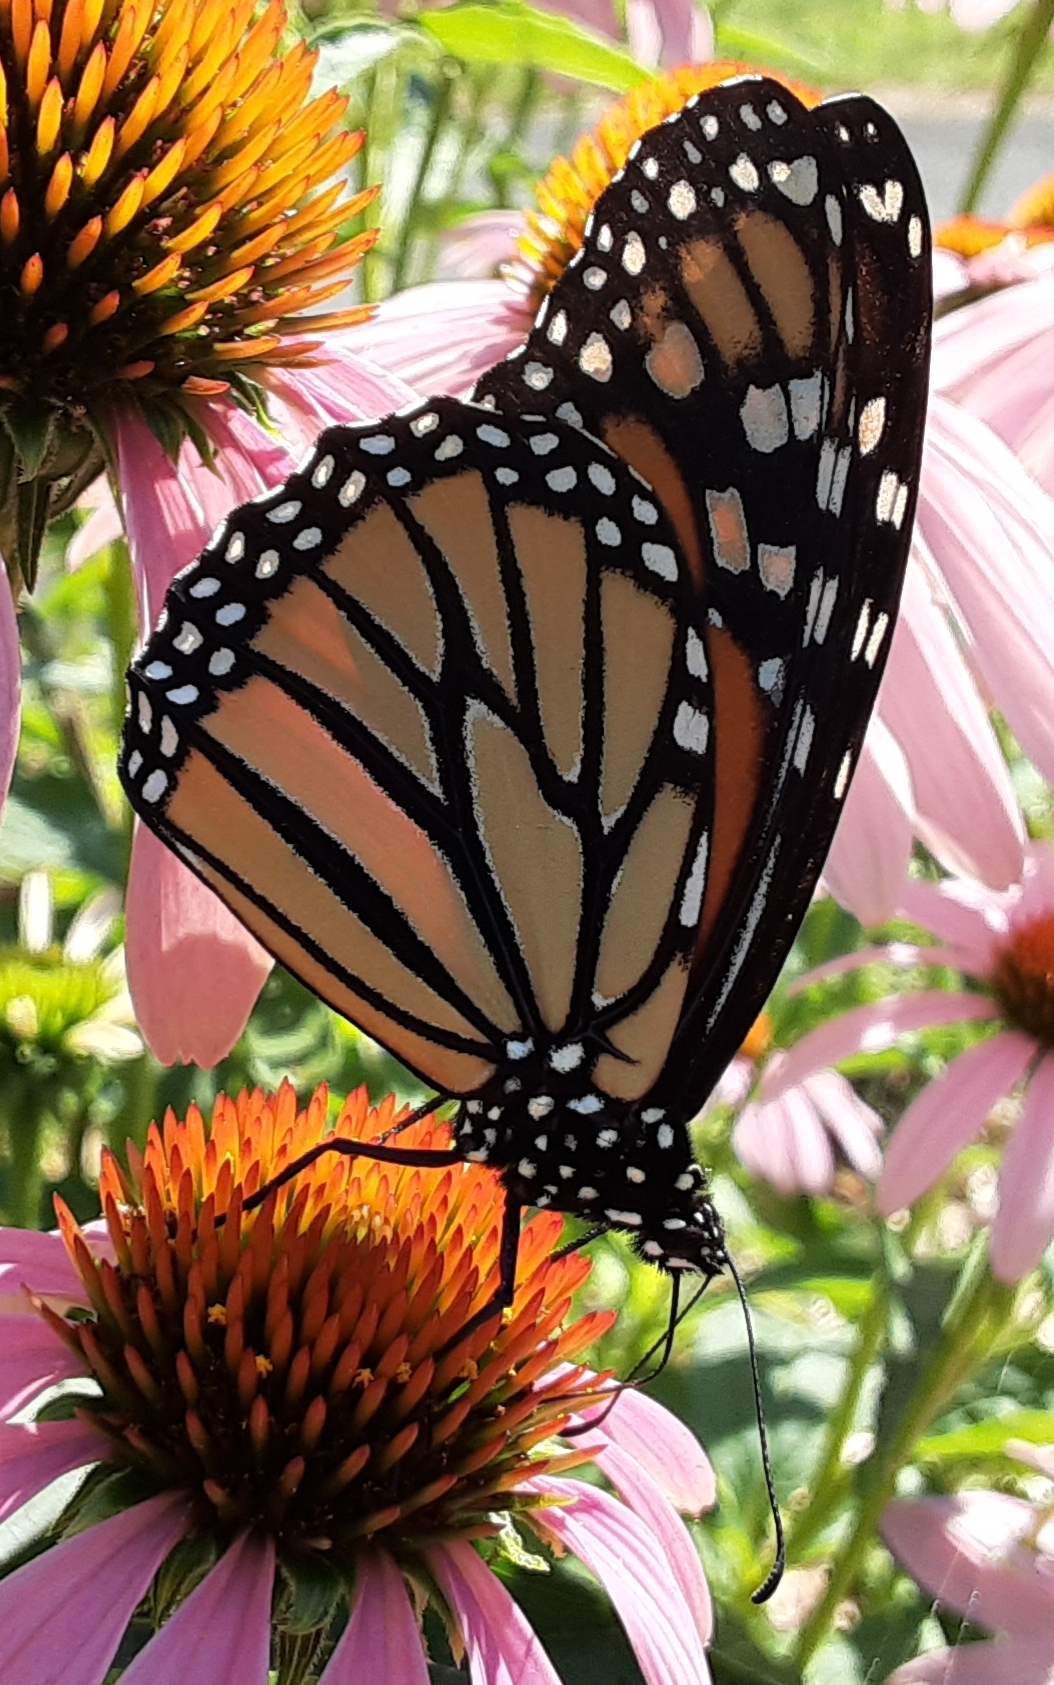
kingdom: Animalia
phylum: Arthropoda
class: Insecta
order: Lepidoptera
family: Nymphalidae
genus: Danaus
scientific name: Danaus plexippus
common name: Monarch
